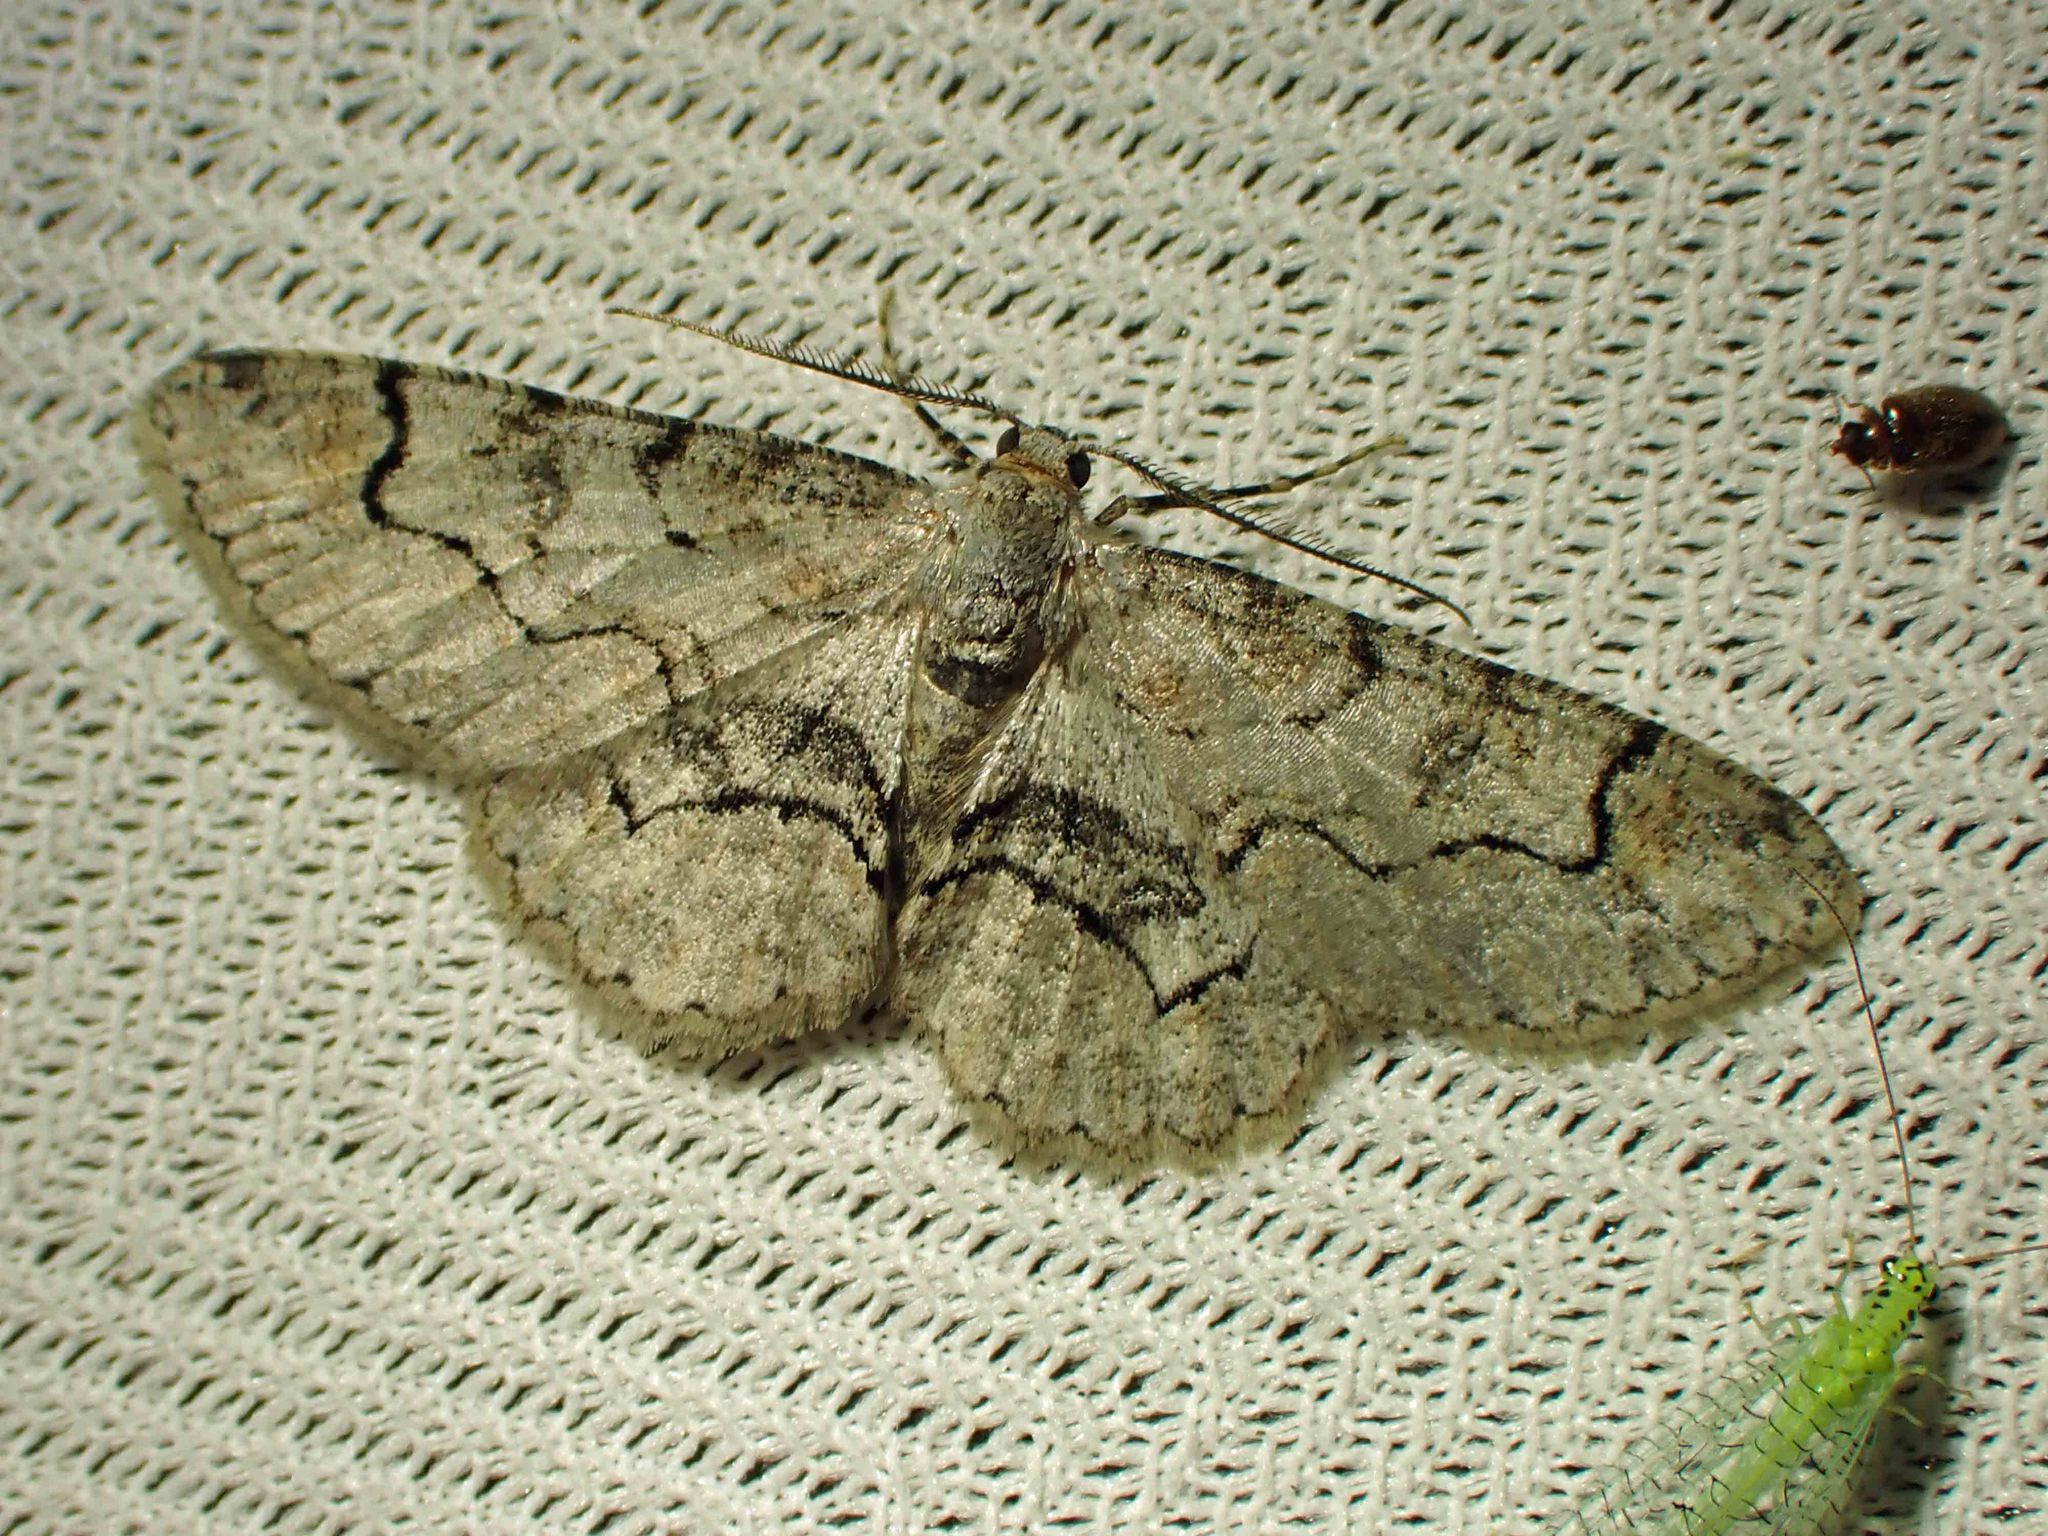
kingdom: Animalia
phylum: Arthropoda
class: Insecta
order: Lepidoptera
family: Geometridae
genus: Iridopsis
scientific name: Iridopsis larvaria
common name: Bent-line gray
